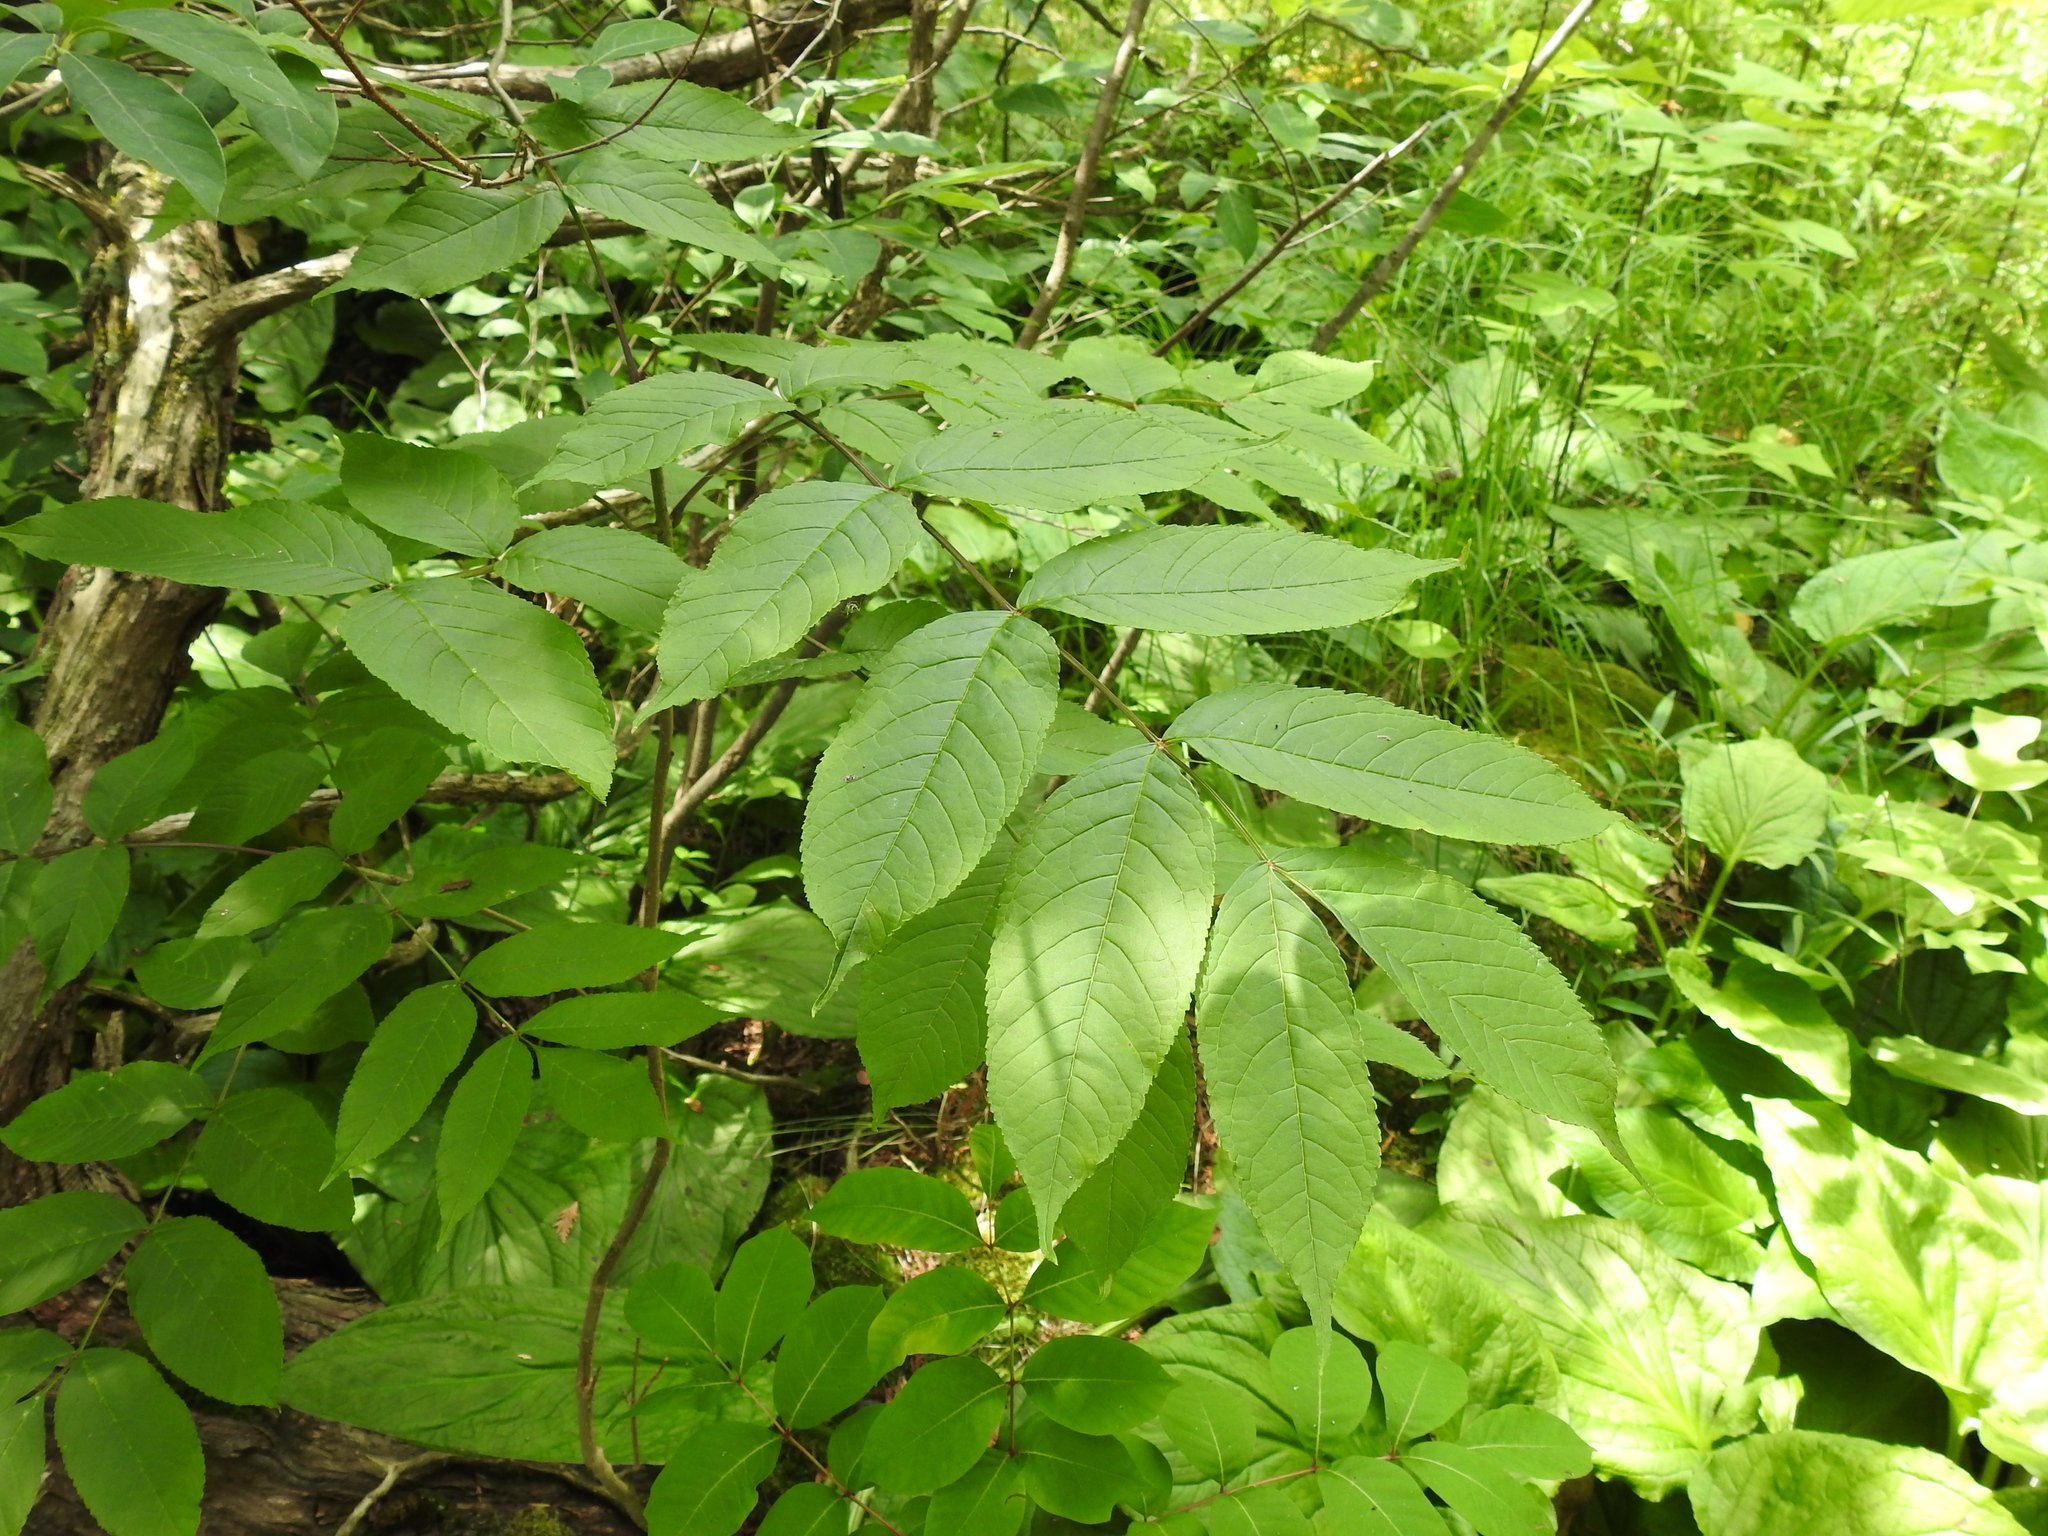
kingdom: Plantae
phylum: Tracheophyta
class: Magnoliopsida
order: Lamiales
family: Oleaceae
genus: Fraxinus
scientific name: Fraxinus nigra
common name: Black ash
